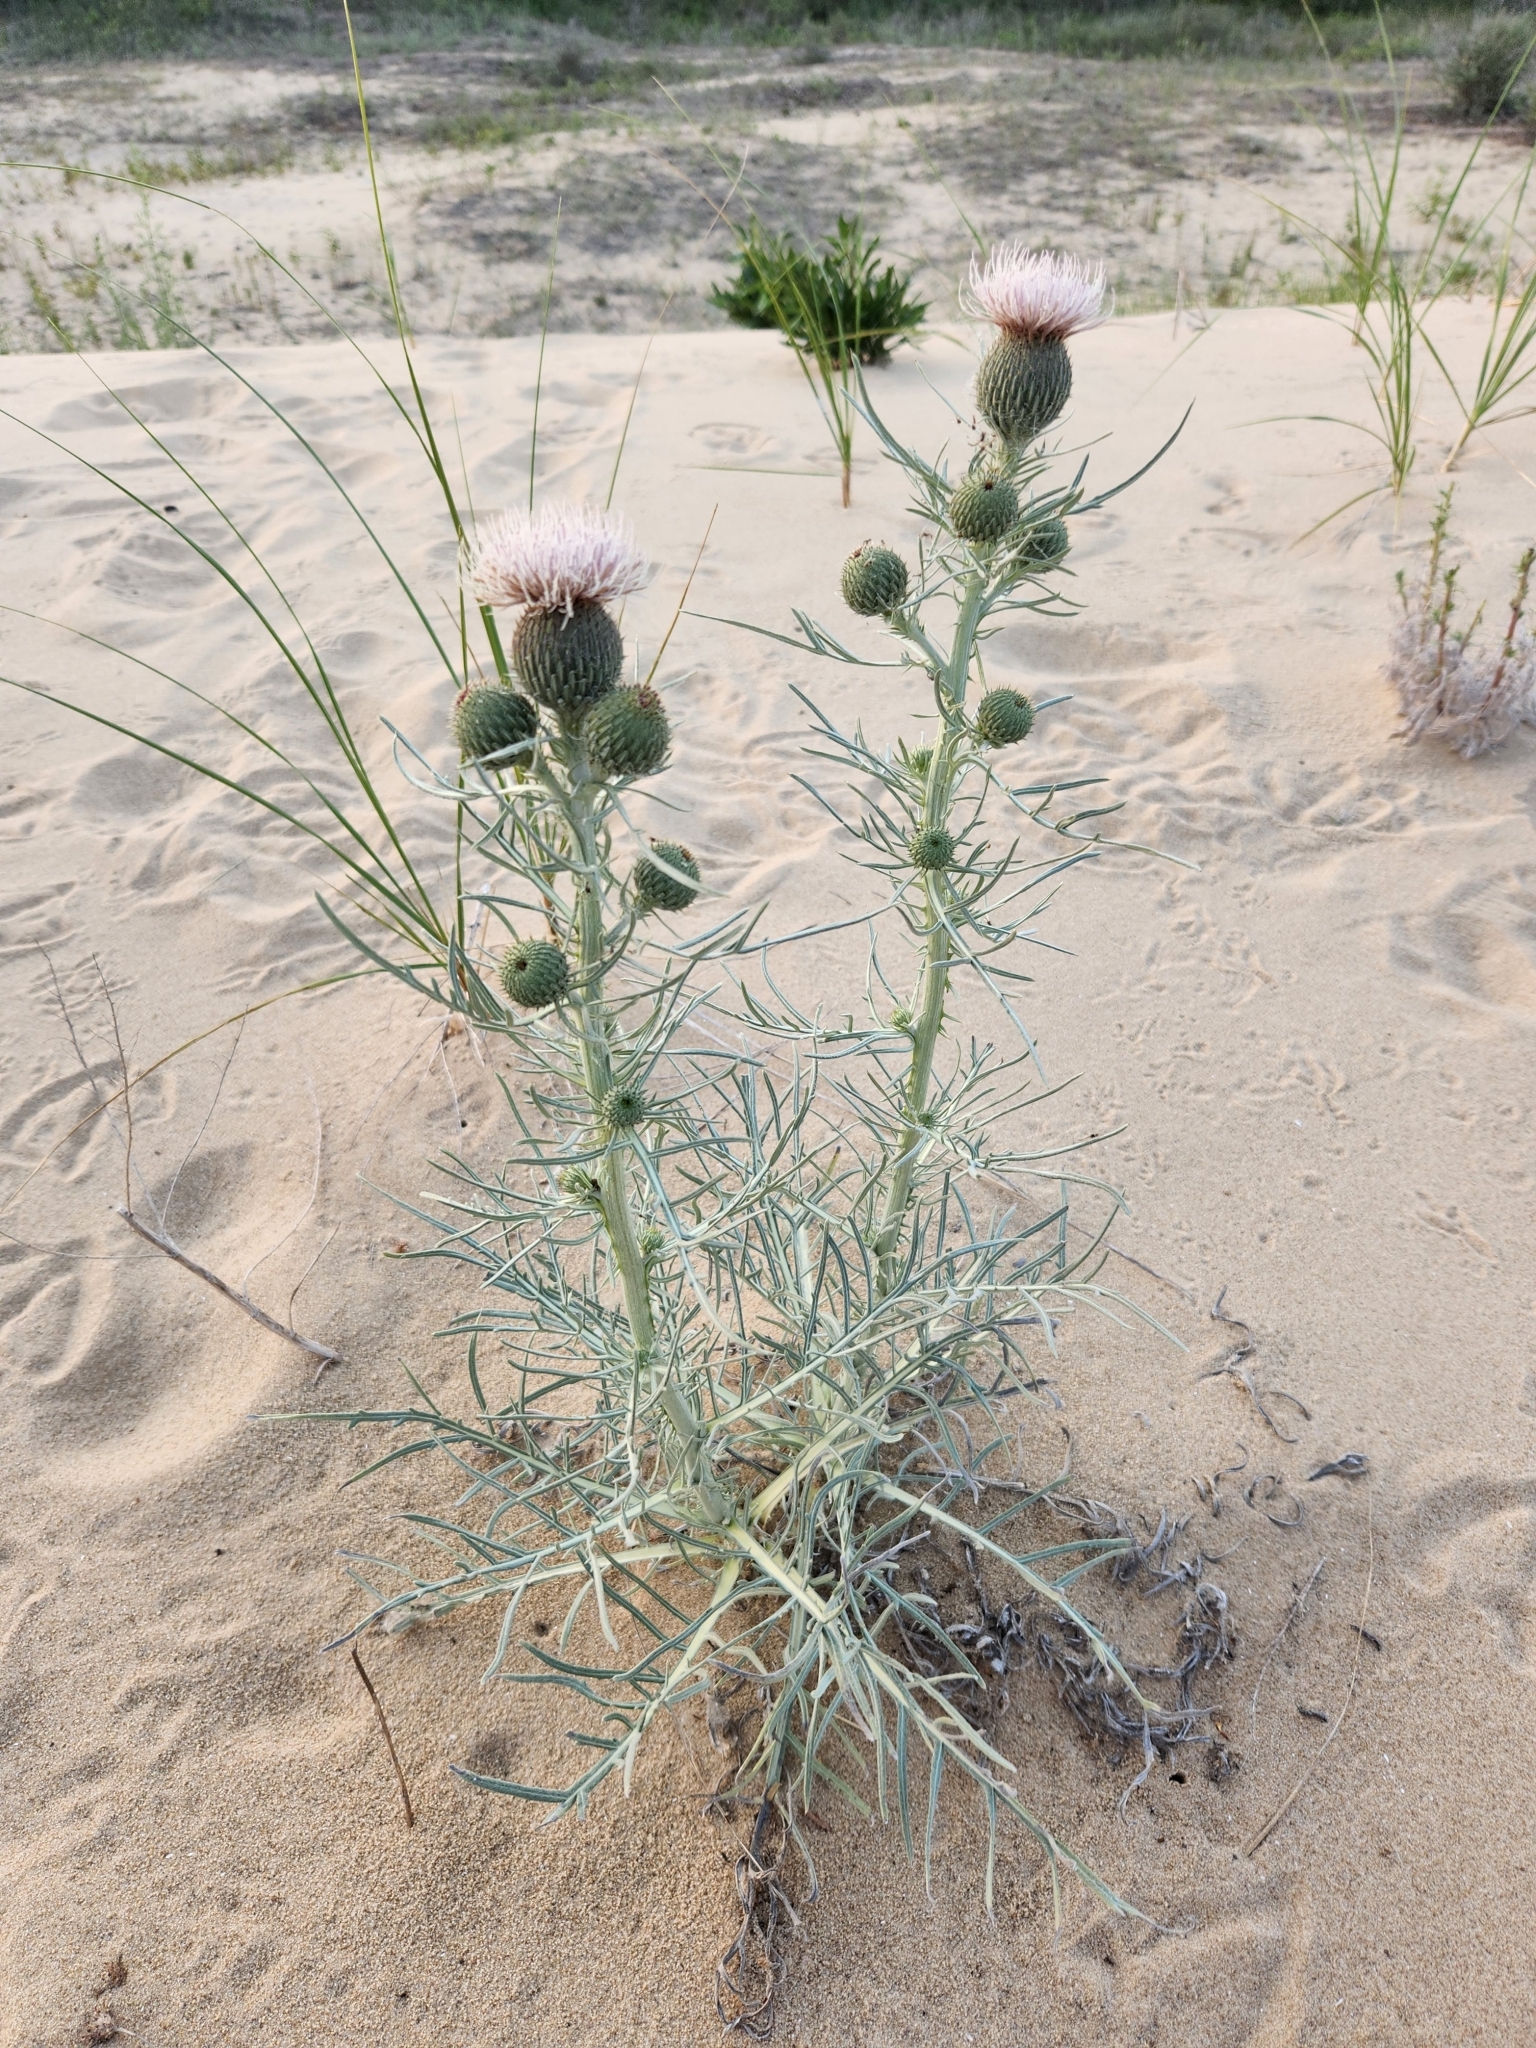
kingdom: Plantae
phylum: Tracheophyta
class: Magnoliopsida
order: Asterales
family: Asteraceae
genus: Cirsium
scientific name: Cirsium pitcheri
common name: Dune thistle
